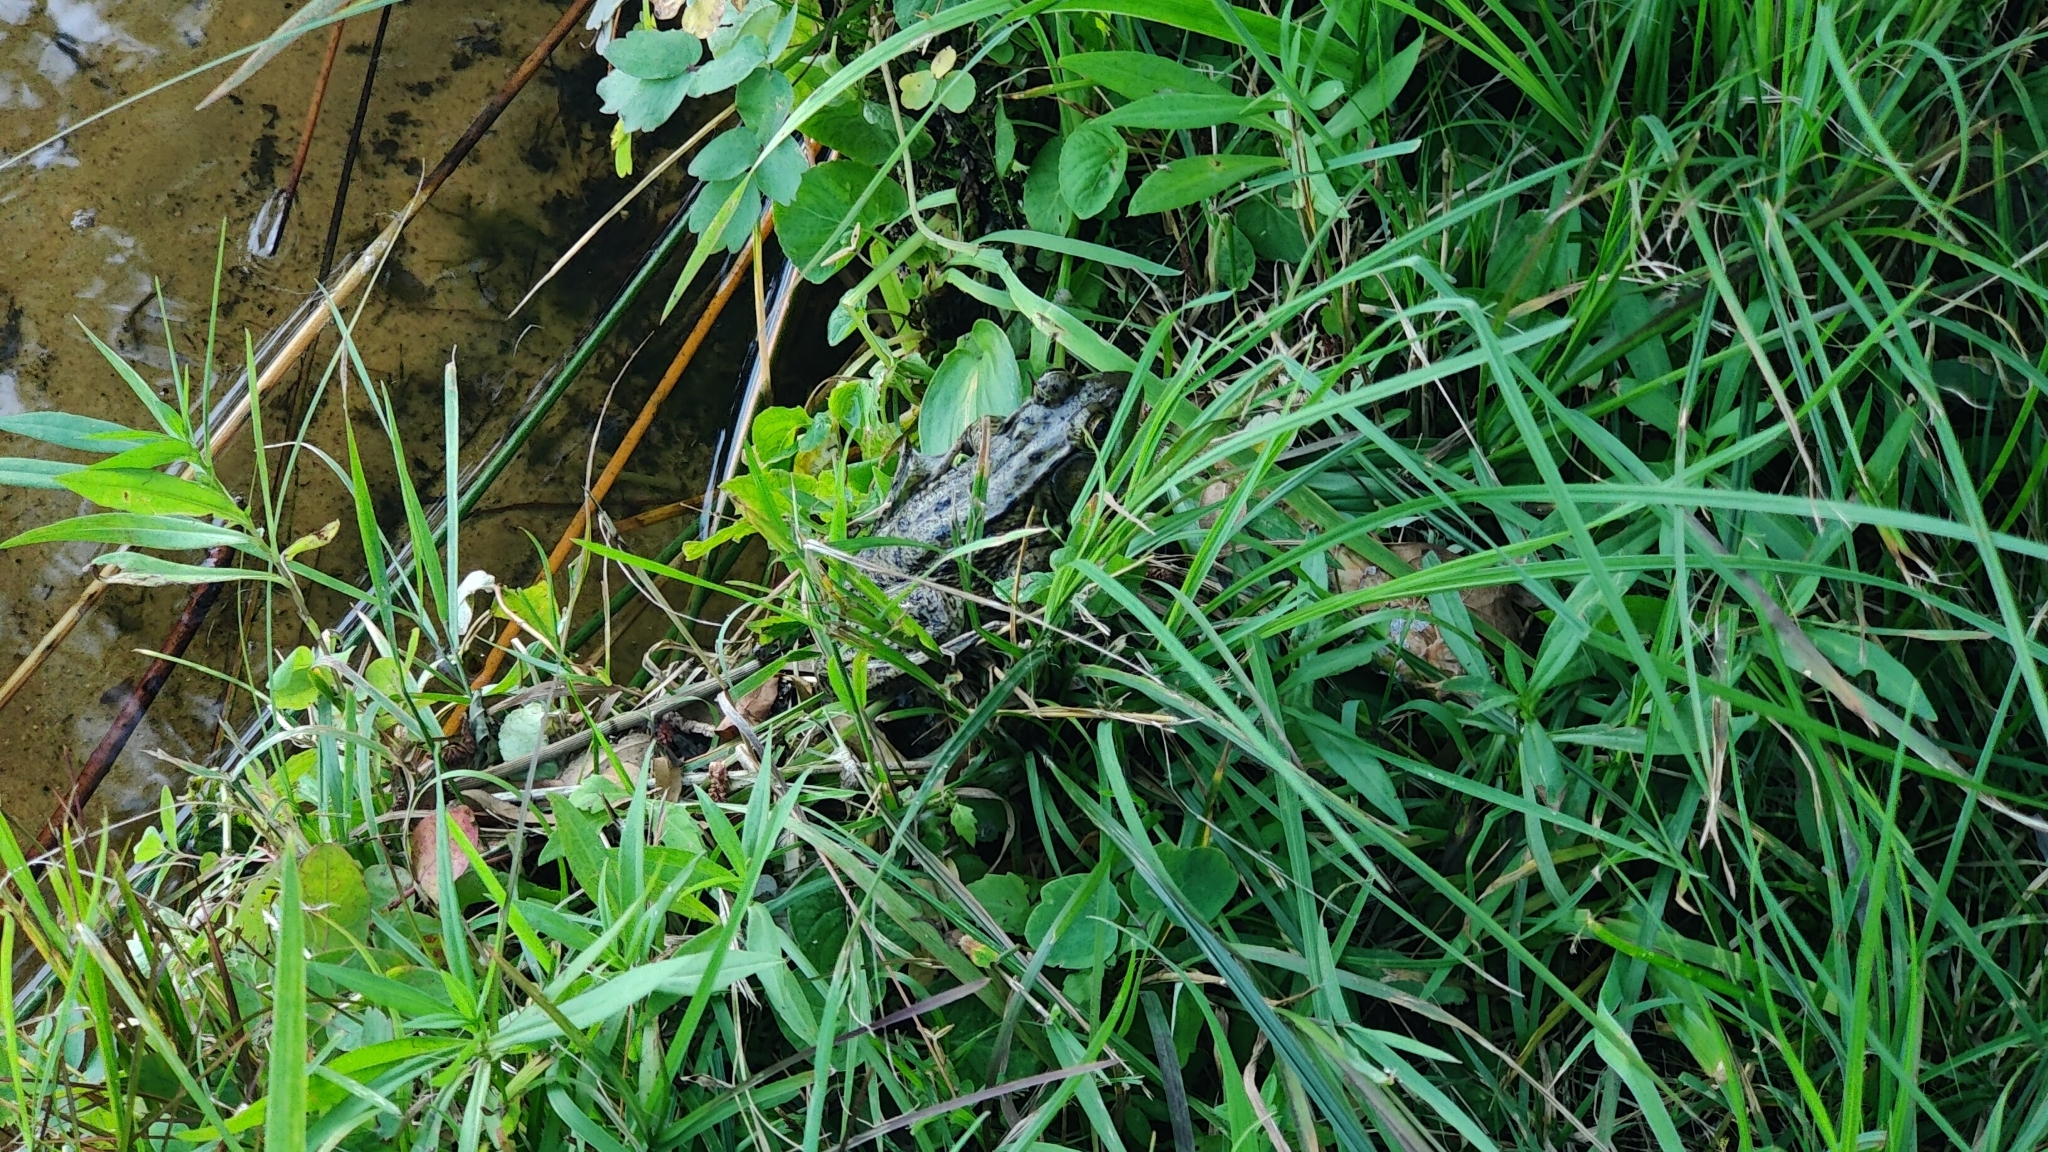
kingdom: Animalia
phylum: Chordata
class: Amphibia
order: Anura
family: Ranidae
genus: Lithobates
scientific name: Lithobates clamitans
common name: Green frog
